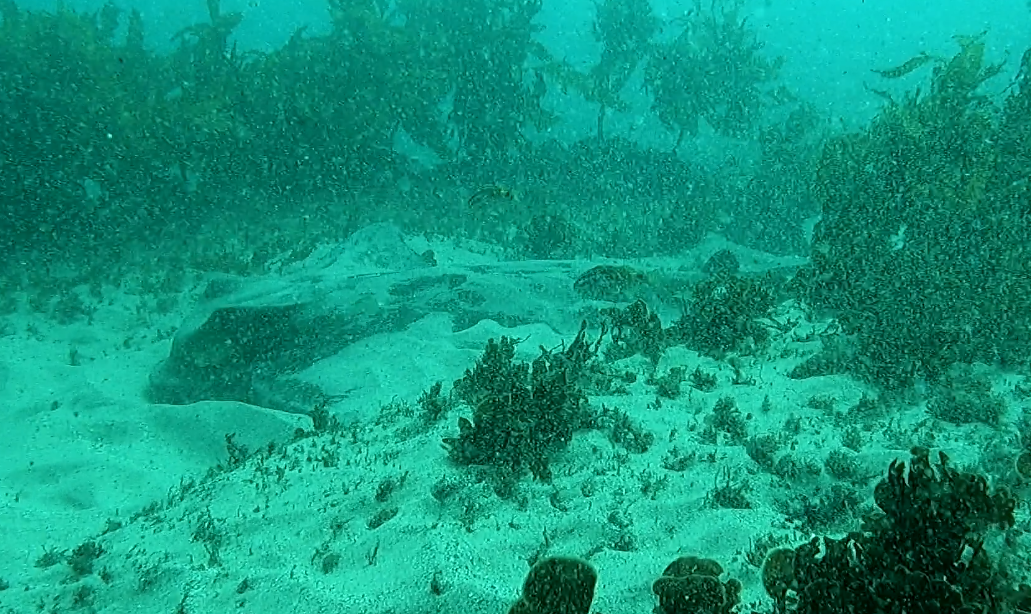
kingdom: Animalia
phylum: Chordata
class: Elasmobranchii
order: Myliobatiformes
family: Myliobatidae
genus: Myliobatis
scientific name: Myliobatis tenuicaudatus
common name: Eagle ray
